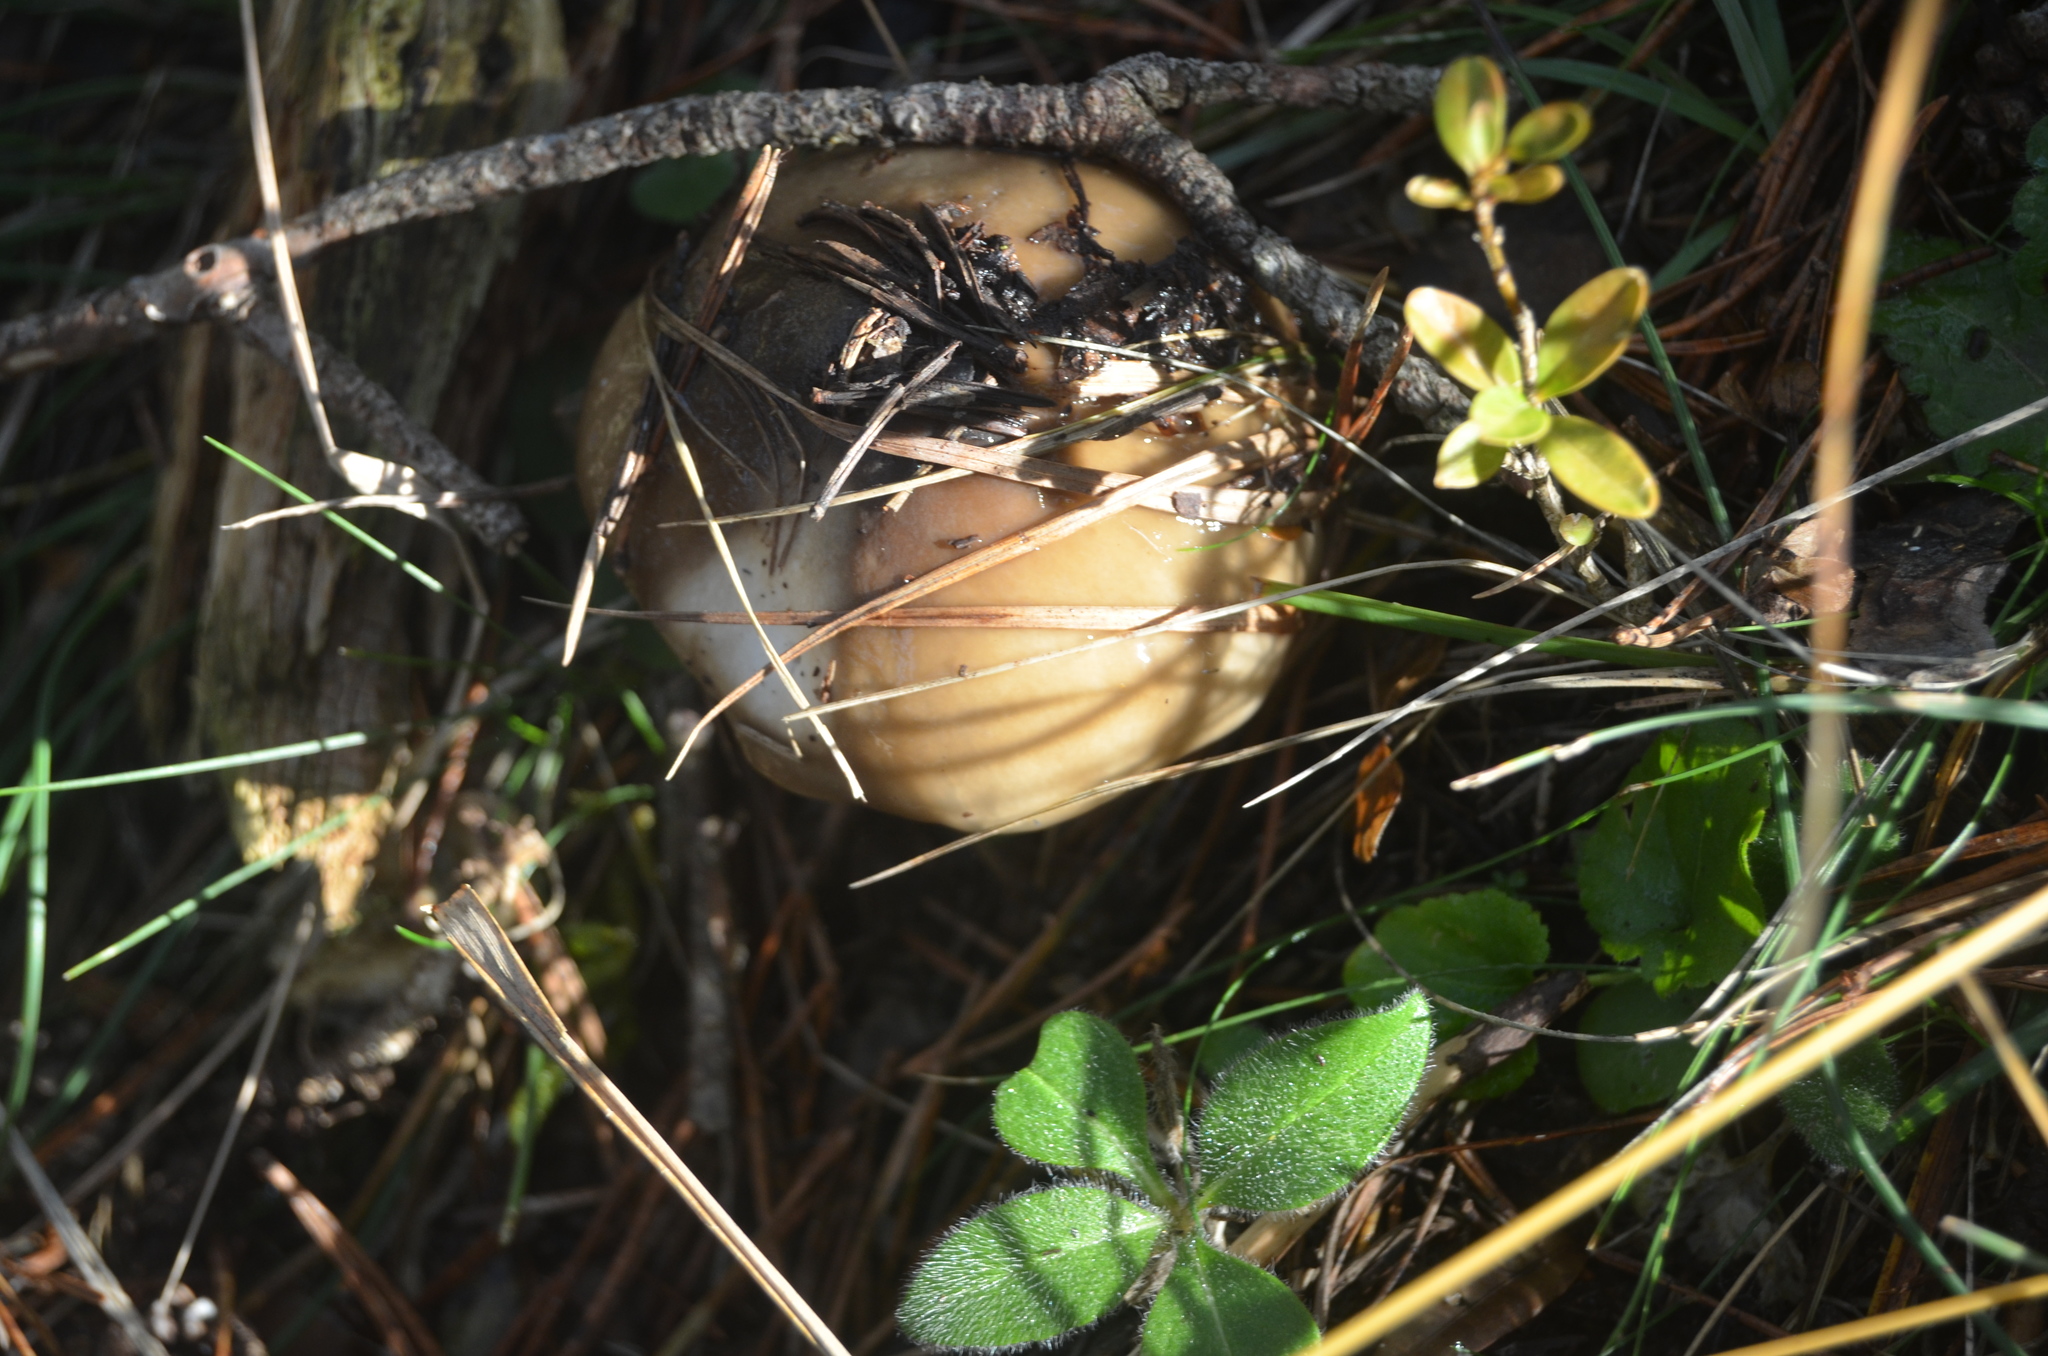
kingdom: Fungi
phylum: Basidiomycota
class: Agaricomycetes
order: Agaricales
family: Hygrophoraceae
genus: Hygrophorus
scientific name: Hygrophorus limacinus
